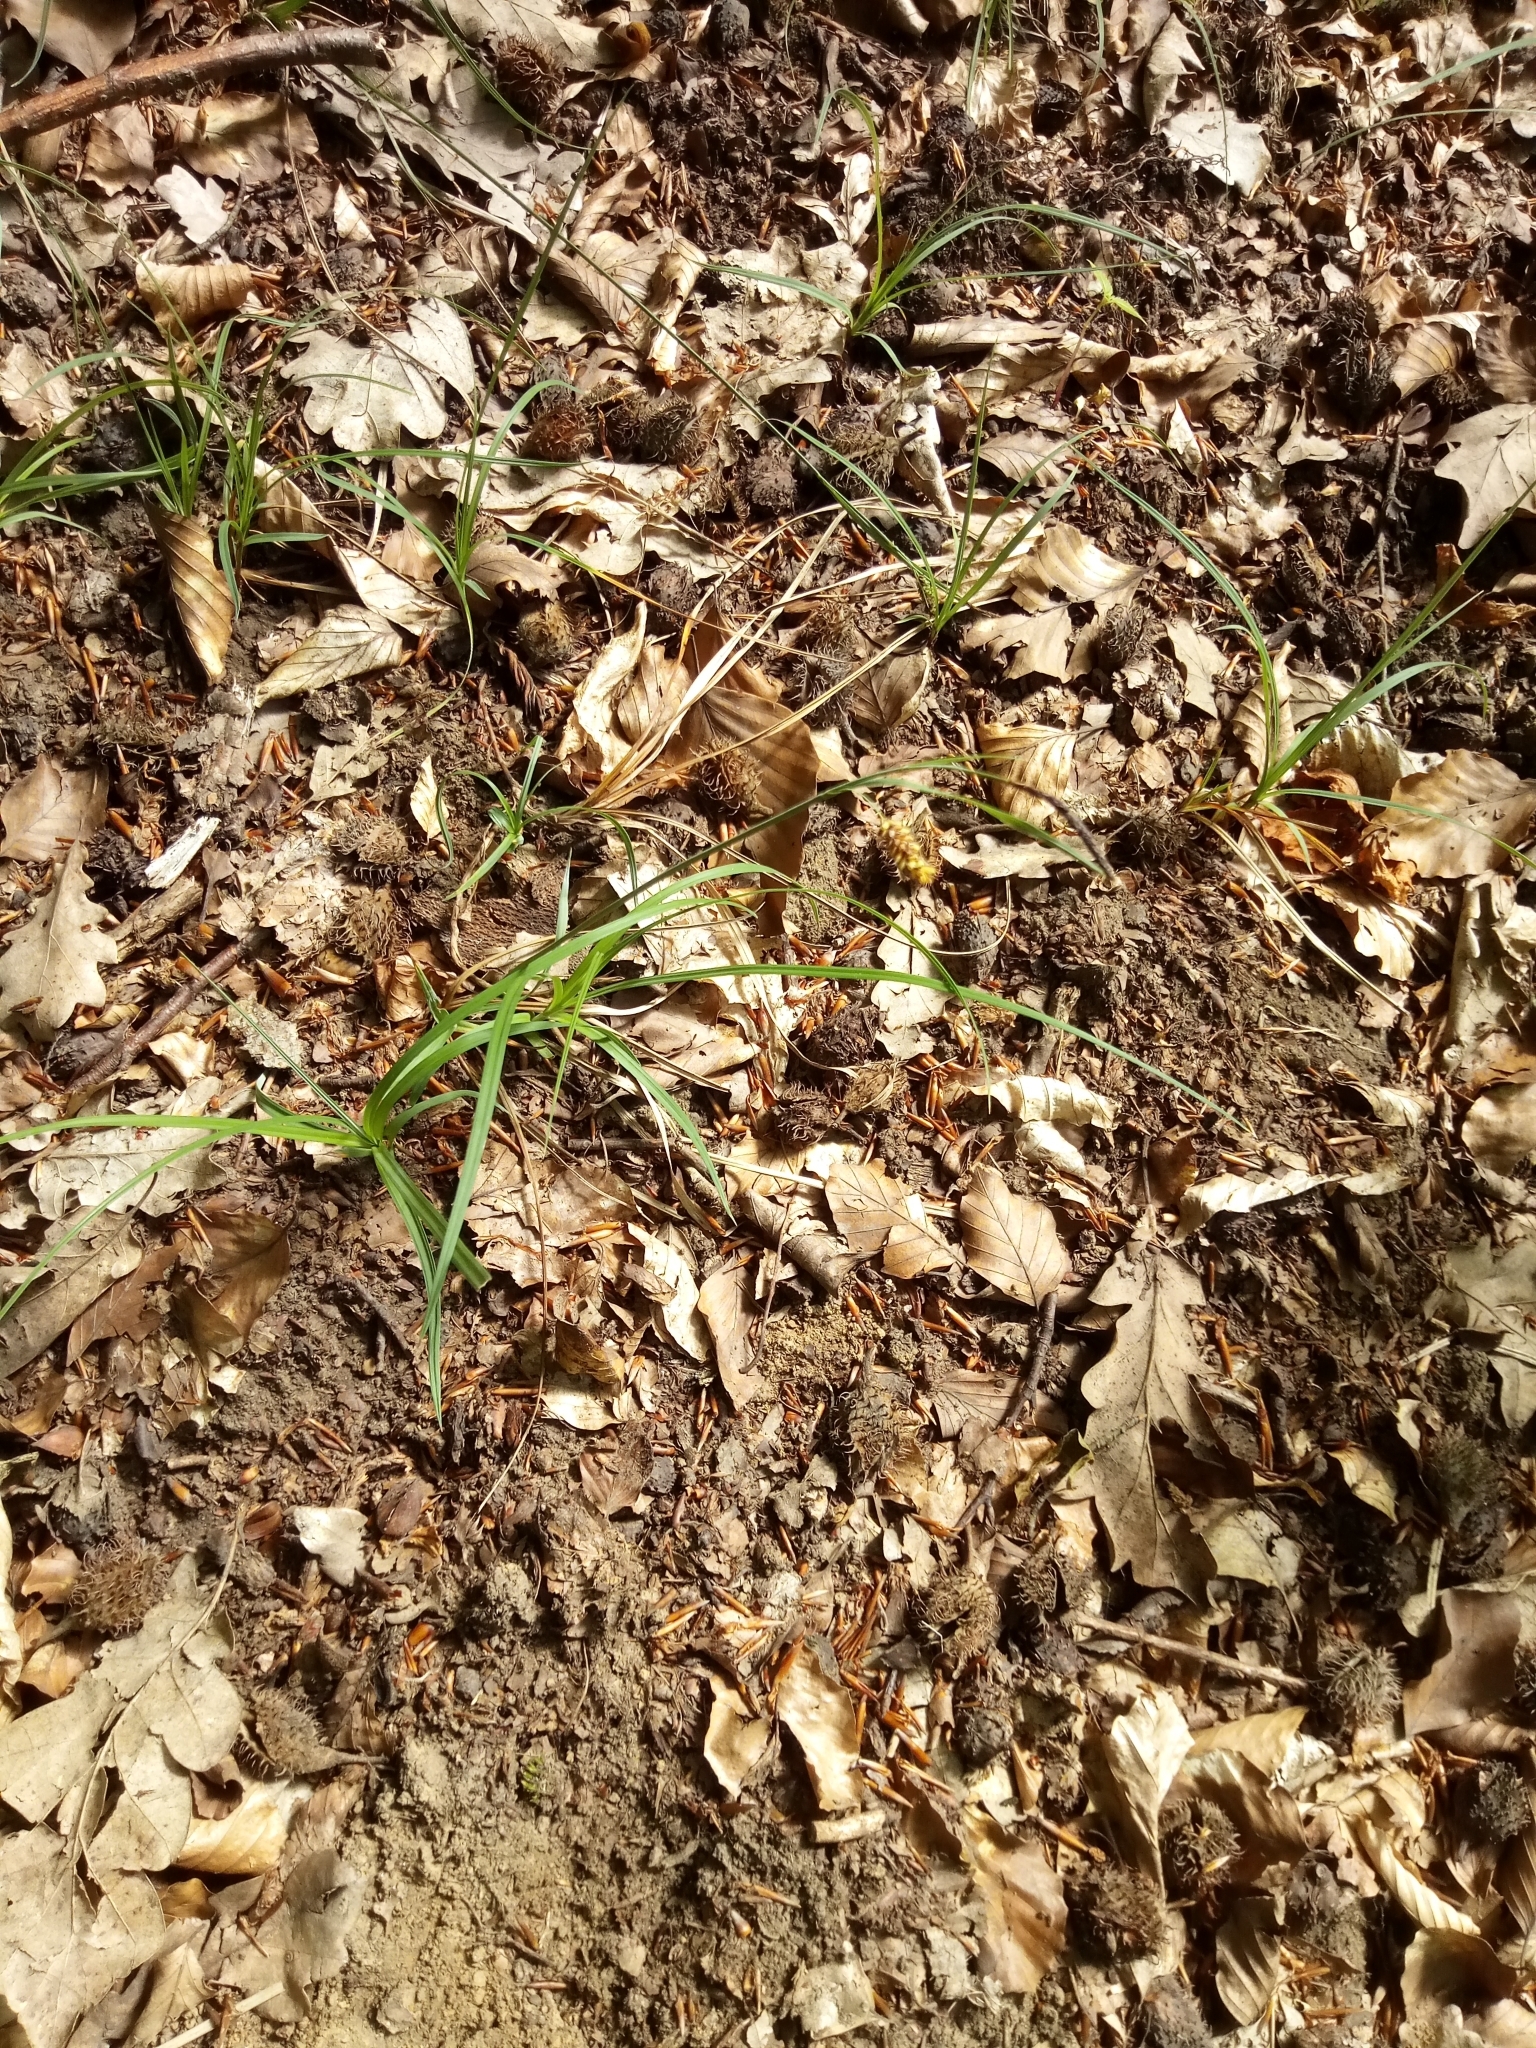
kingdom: Plantae
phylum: Tracheophyta
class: Liliopsida
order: Poales
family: Cyperaceae
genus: Carex
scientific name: Carex flacca
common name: Glaucous sedge
